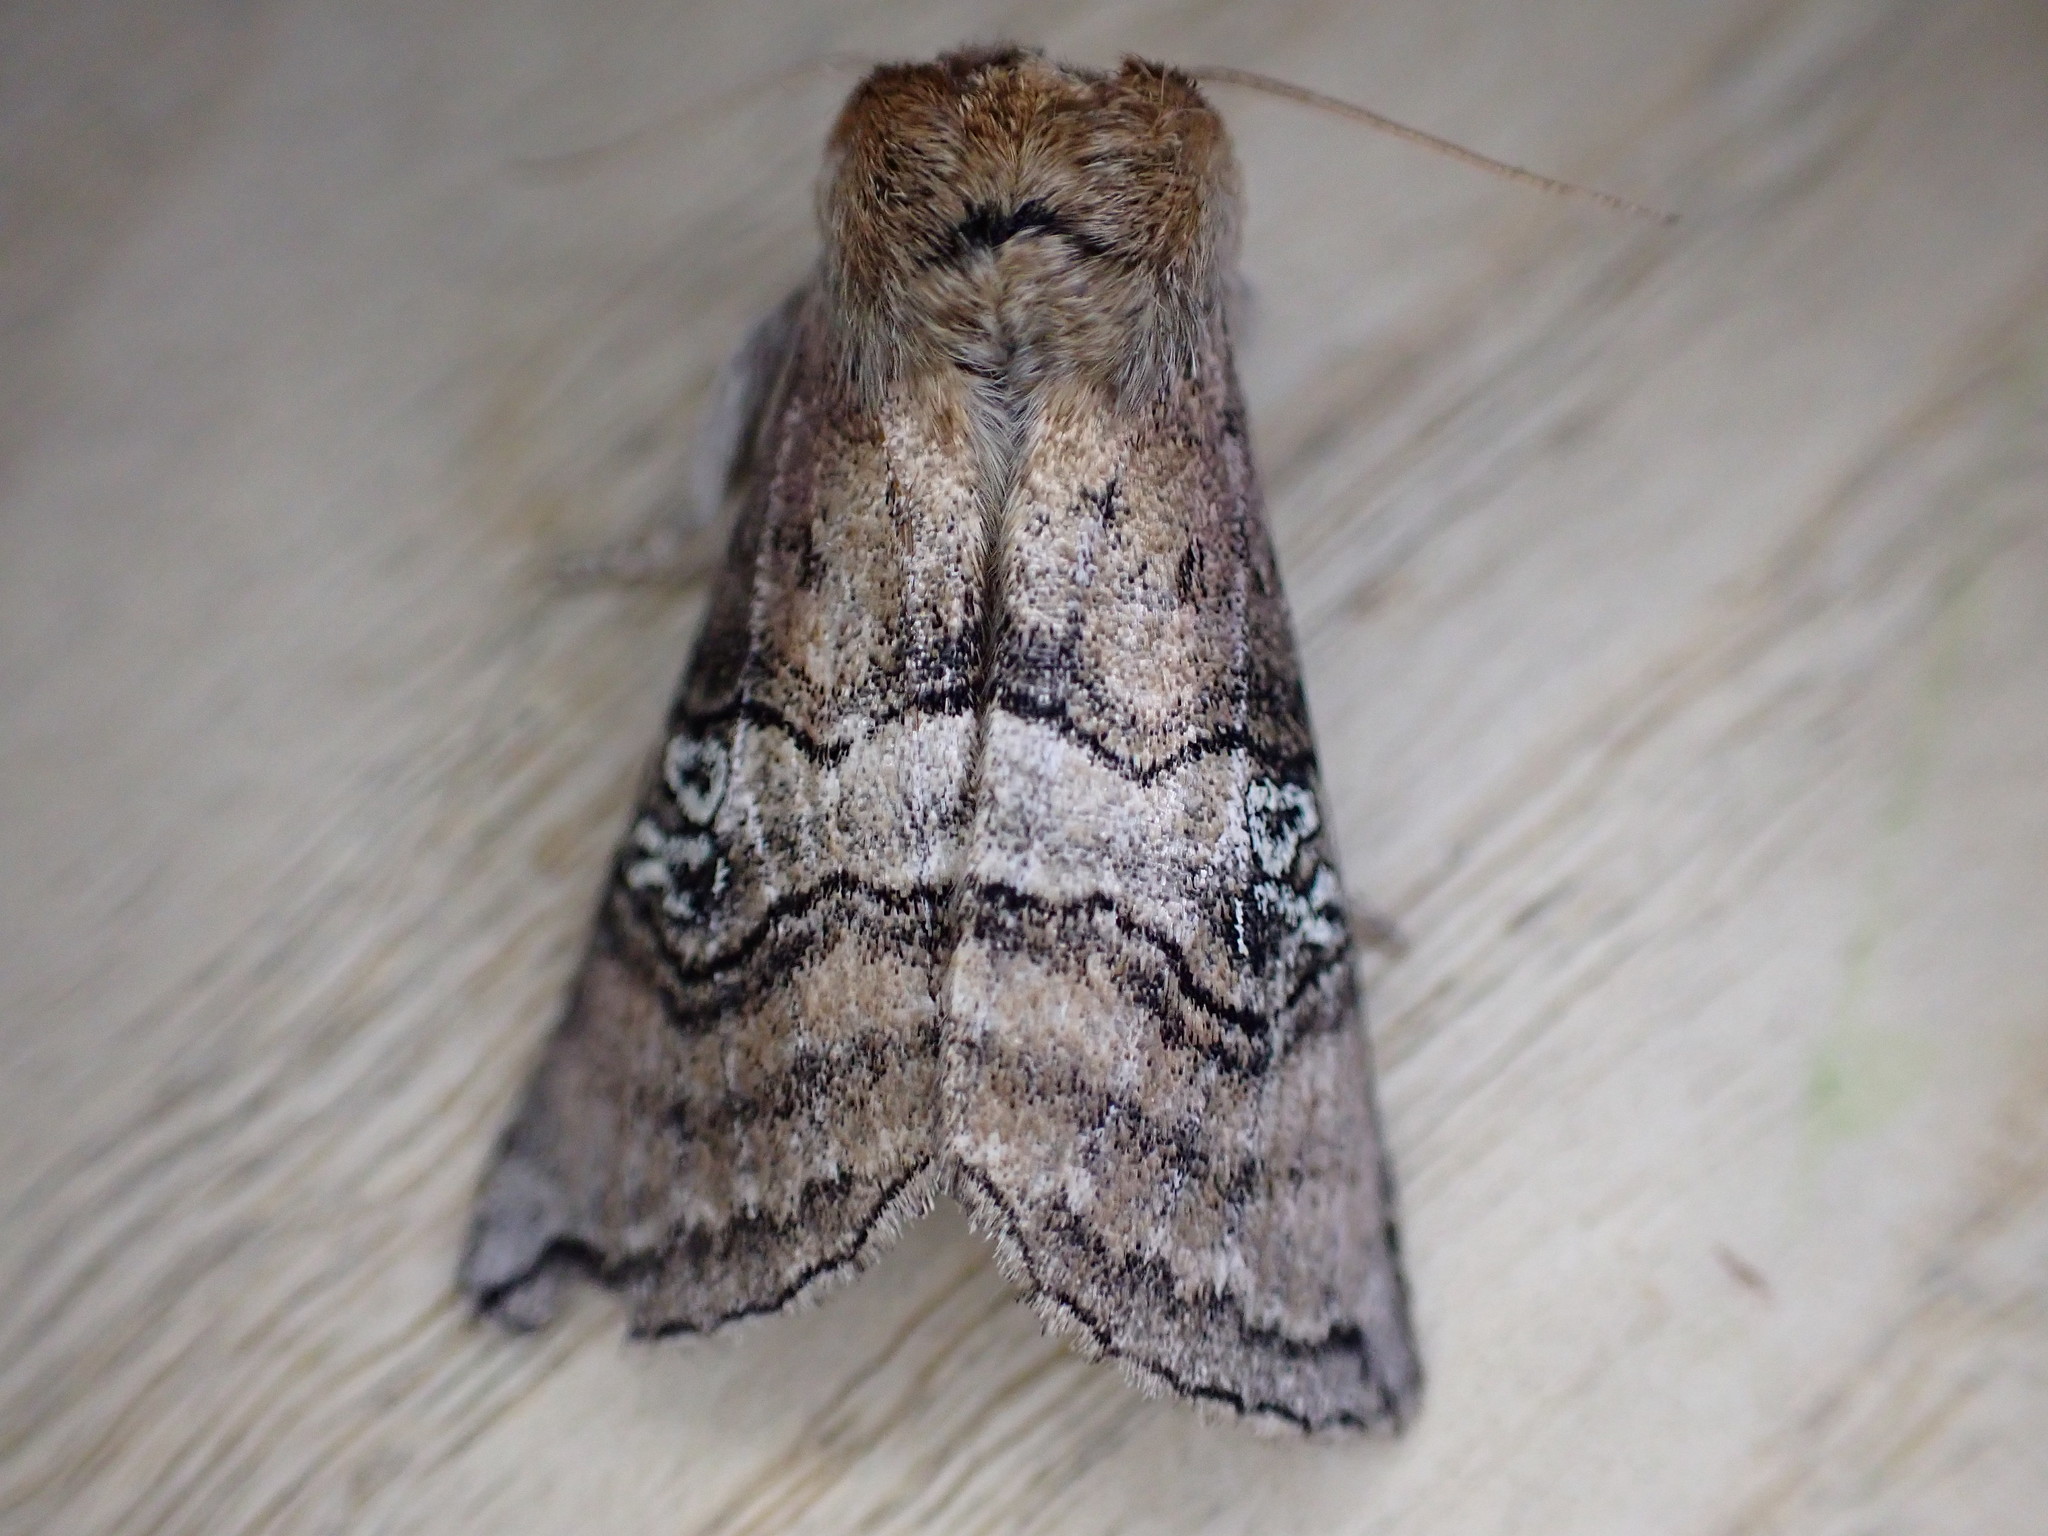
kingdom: Animalia
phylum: Arthropoda
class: Insecta
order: Lepidoptera
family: Drepanidae
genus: Tethea
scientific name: Tethea ocularis
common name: Figure of eighty
